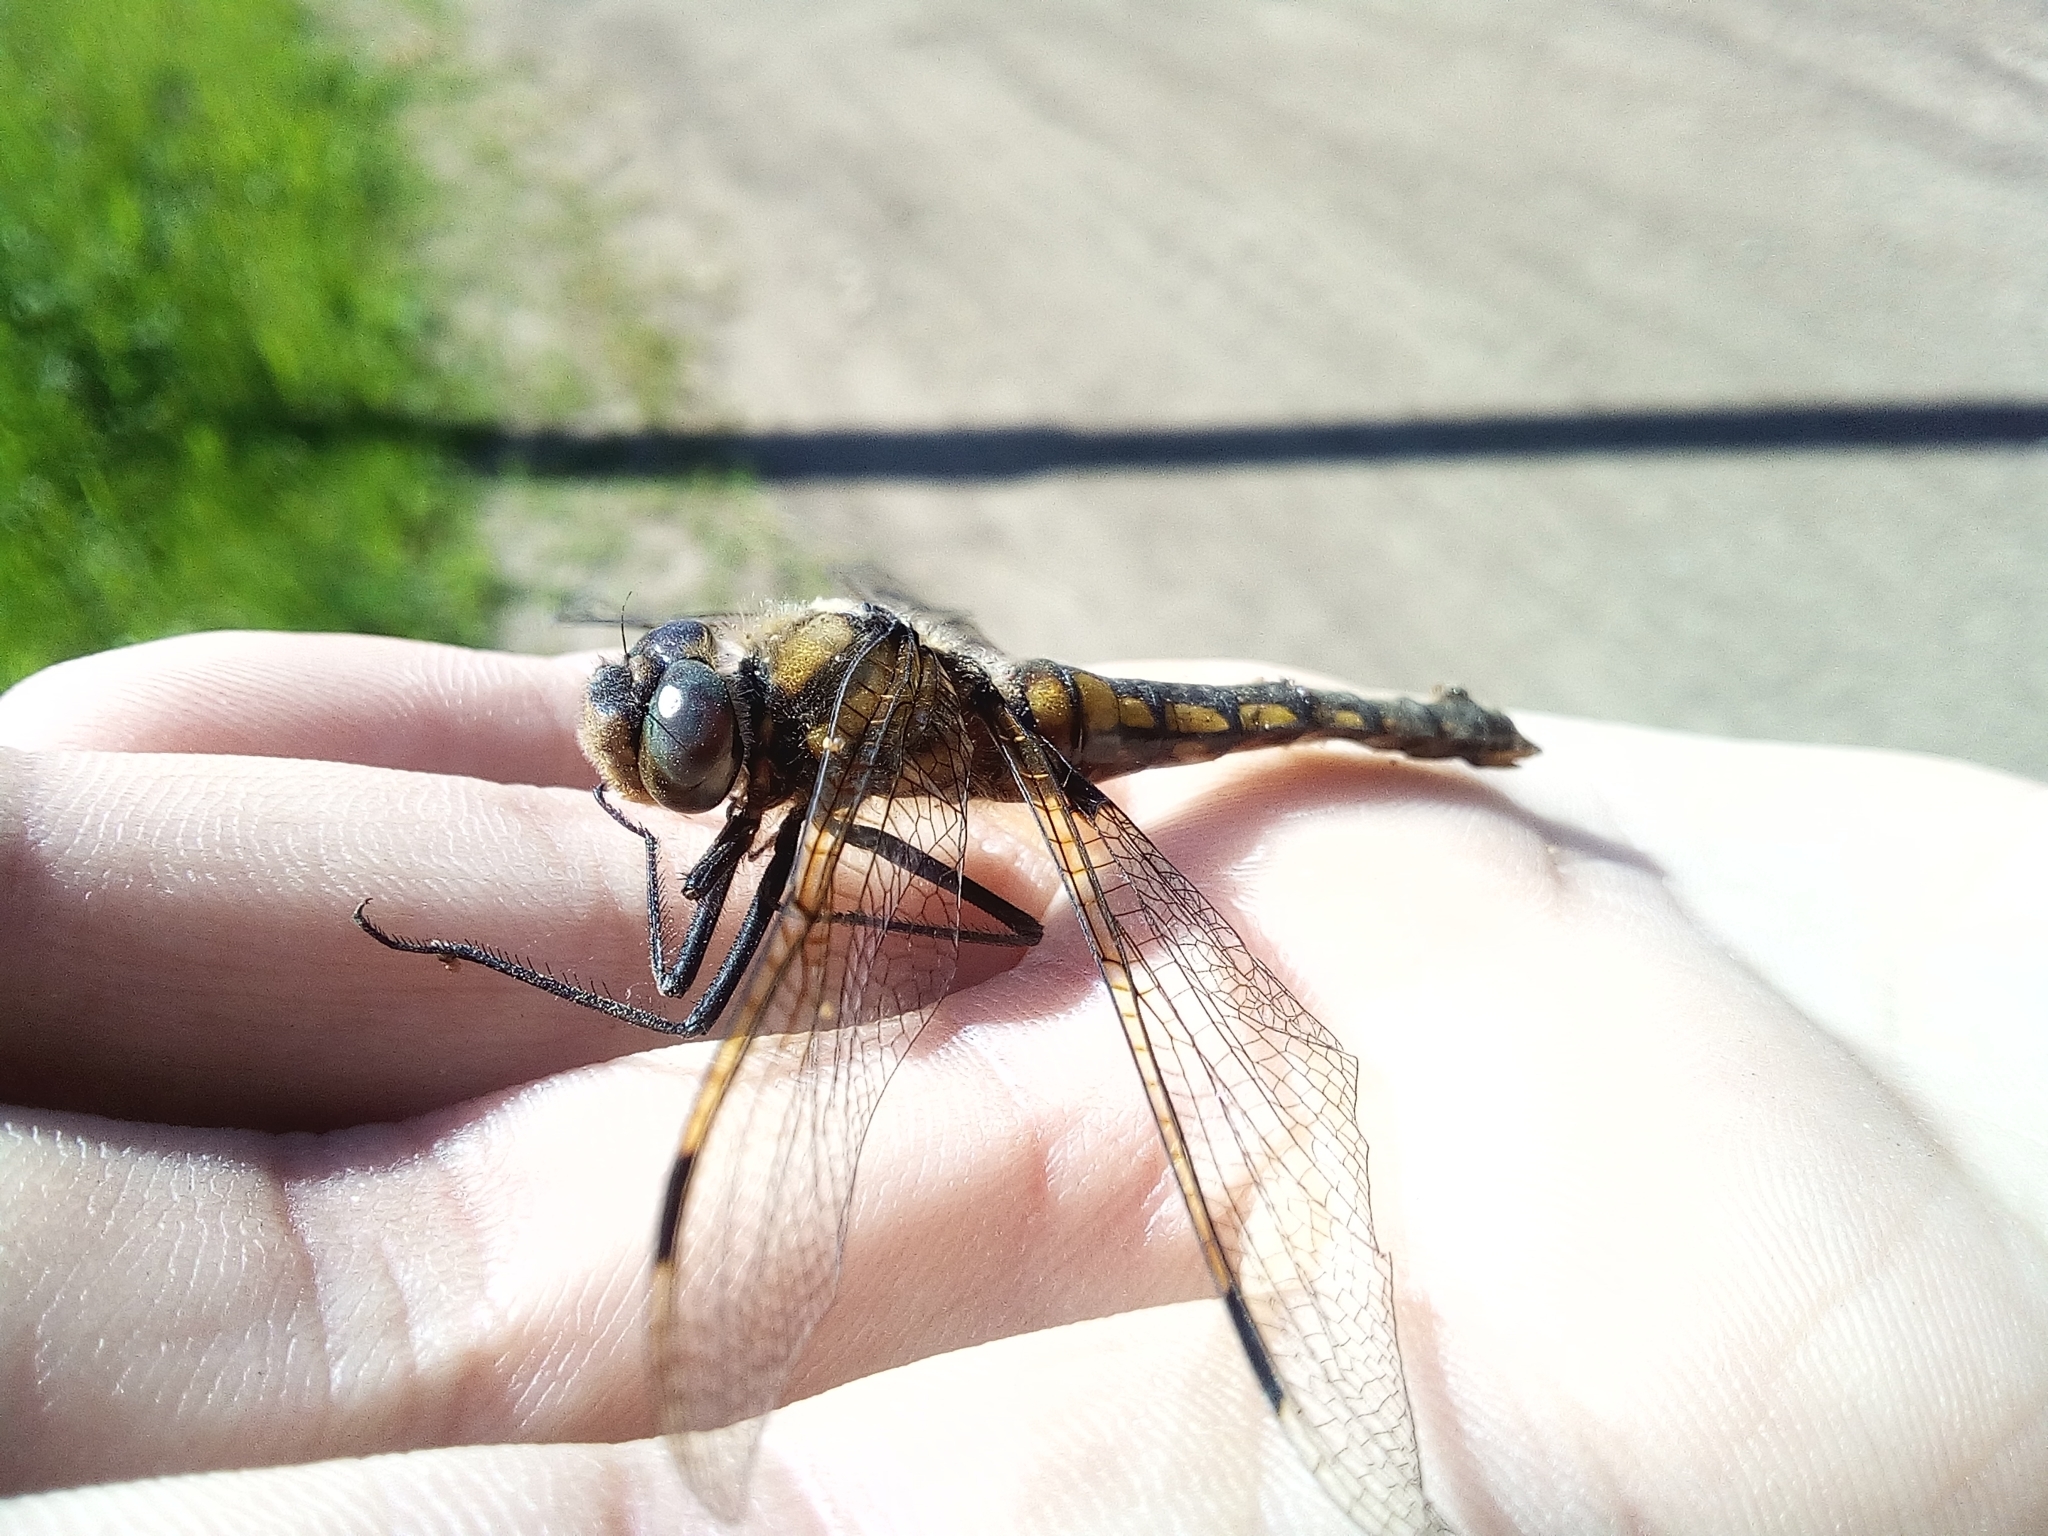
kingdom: Animalia
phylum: Arthropoda
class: Insecta
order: Odonata
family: Corduliidae
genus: Epitheca
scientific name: Epitheca bimaculata
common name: Eurasian baskettail
